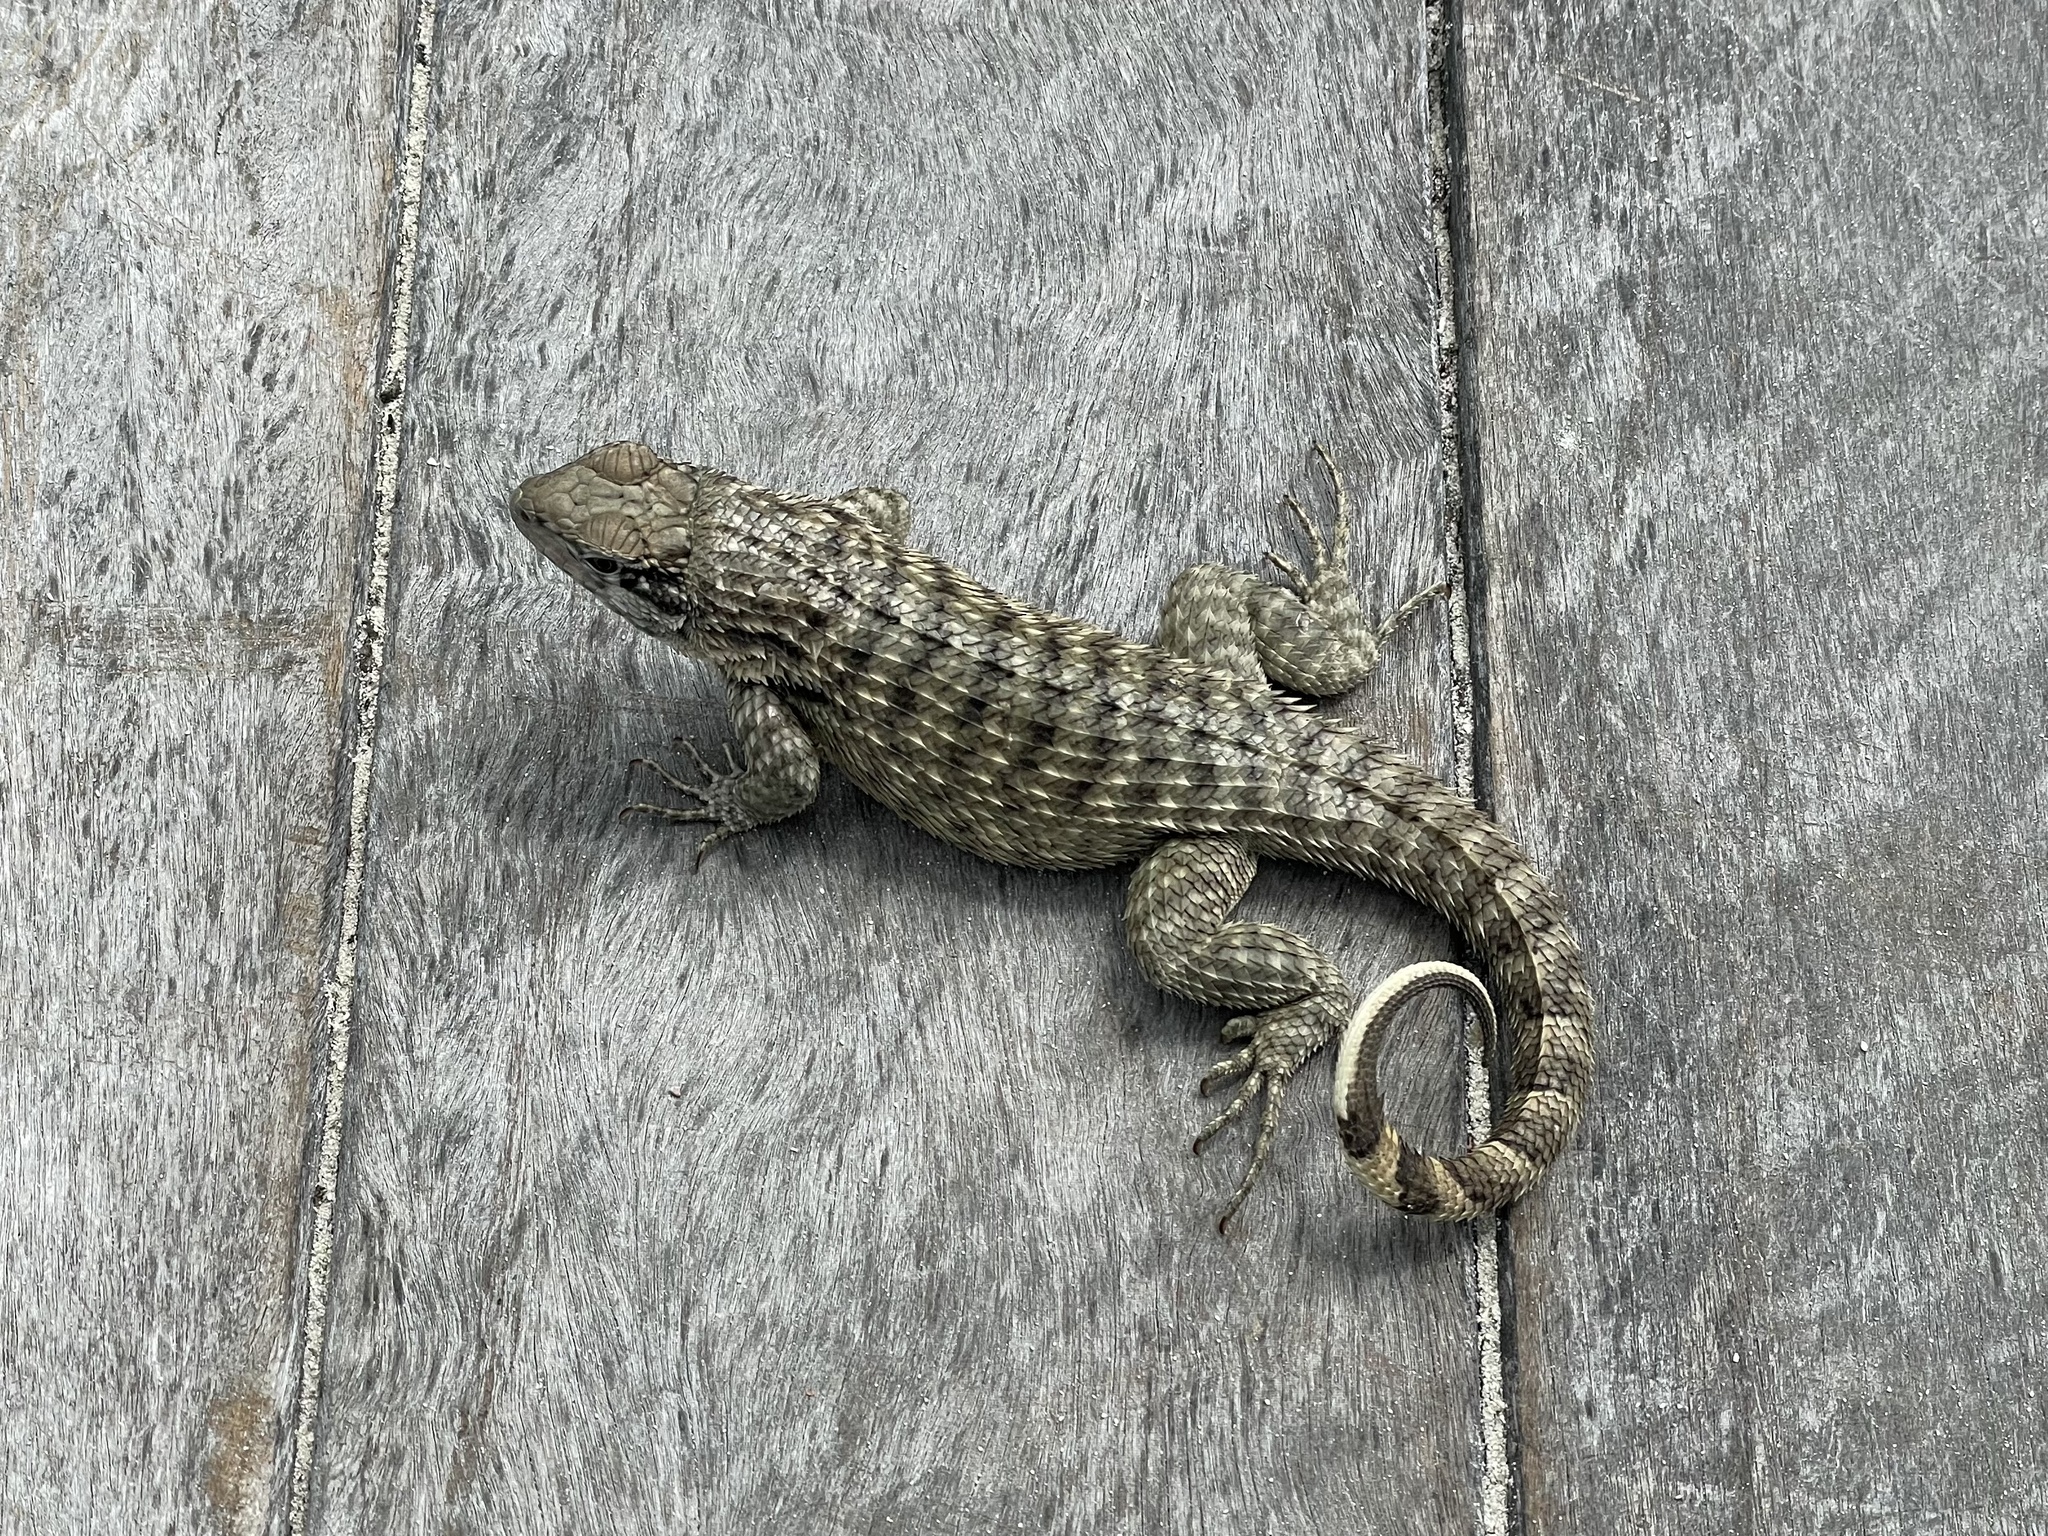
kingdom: Animalia
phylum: Chordata
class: Squamata
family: Leiocephalidae
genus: Leiocephalus
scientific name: Leiocephalus psammodromus
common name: Bastion cay curlytail lizard
